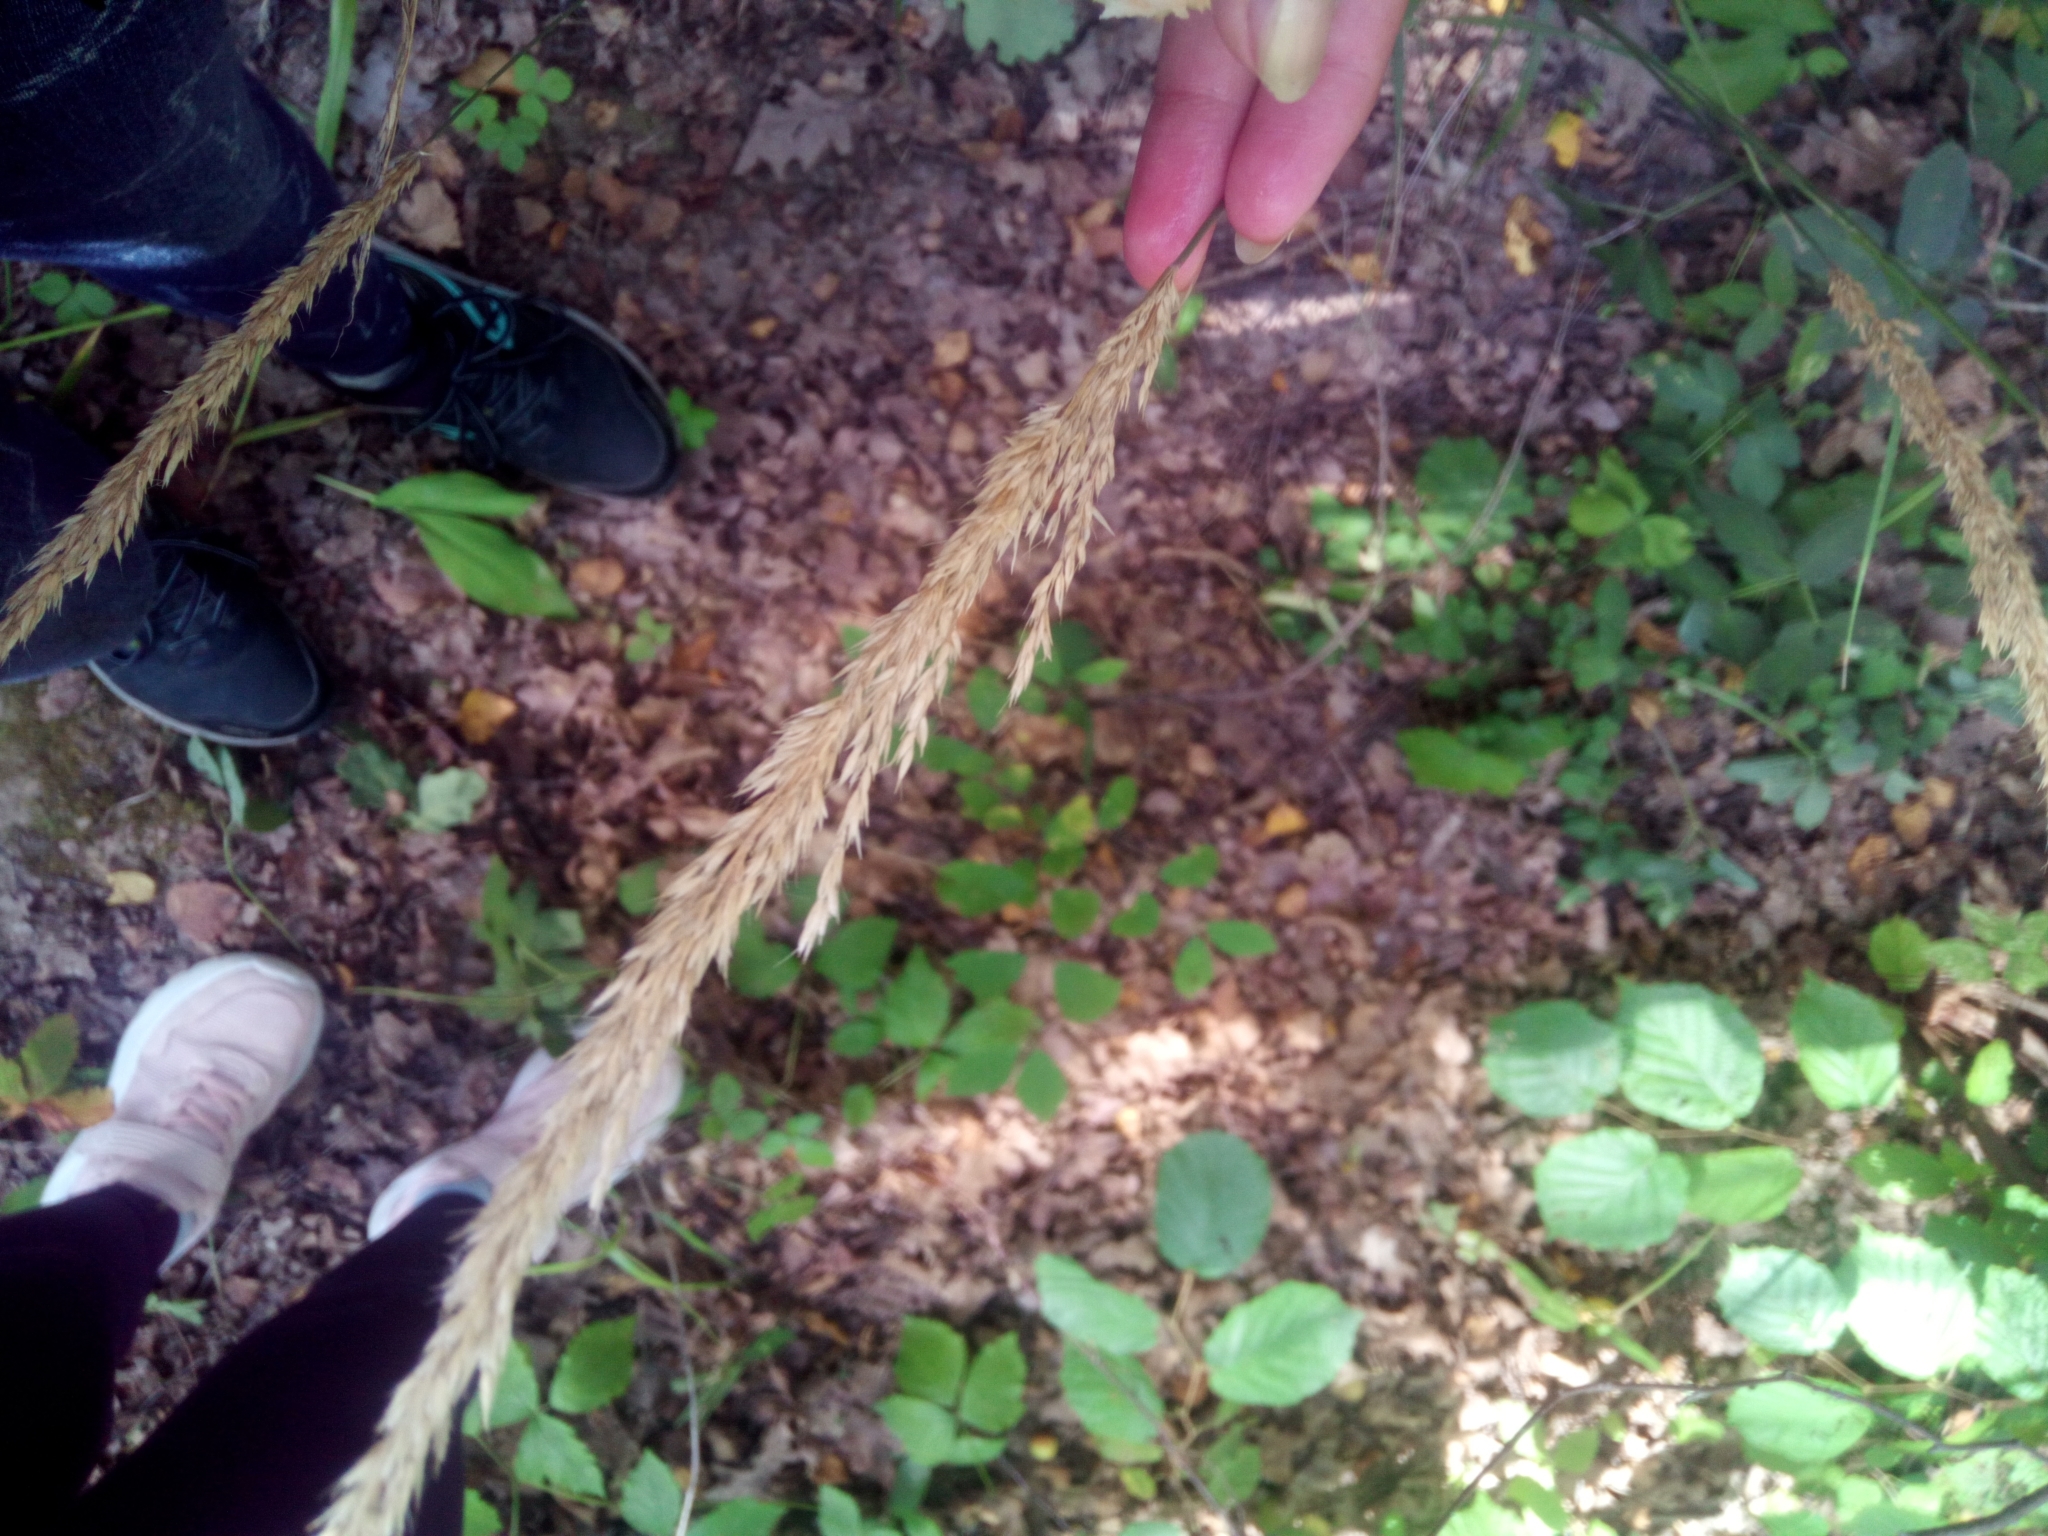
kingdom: Plantae
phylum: Tracheophyta
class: Liliopsida
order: Poales
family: Poaceae
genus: Calamagrostis
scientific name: Calamagrostis arundinacea
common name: Metskastik
